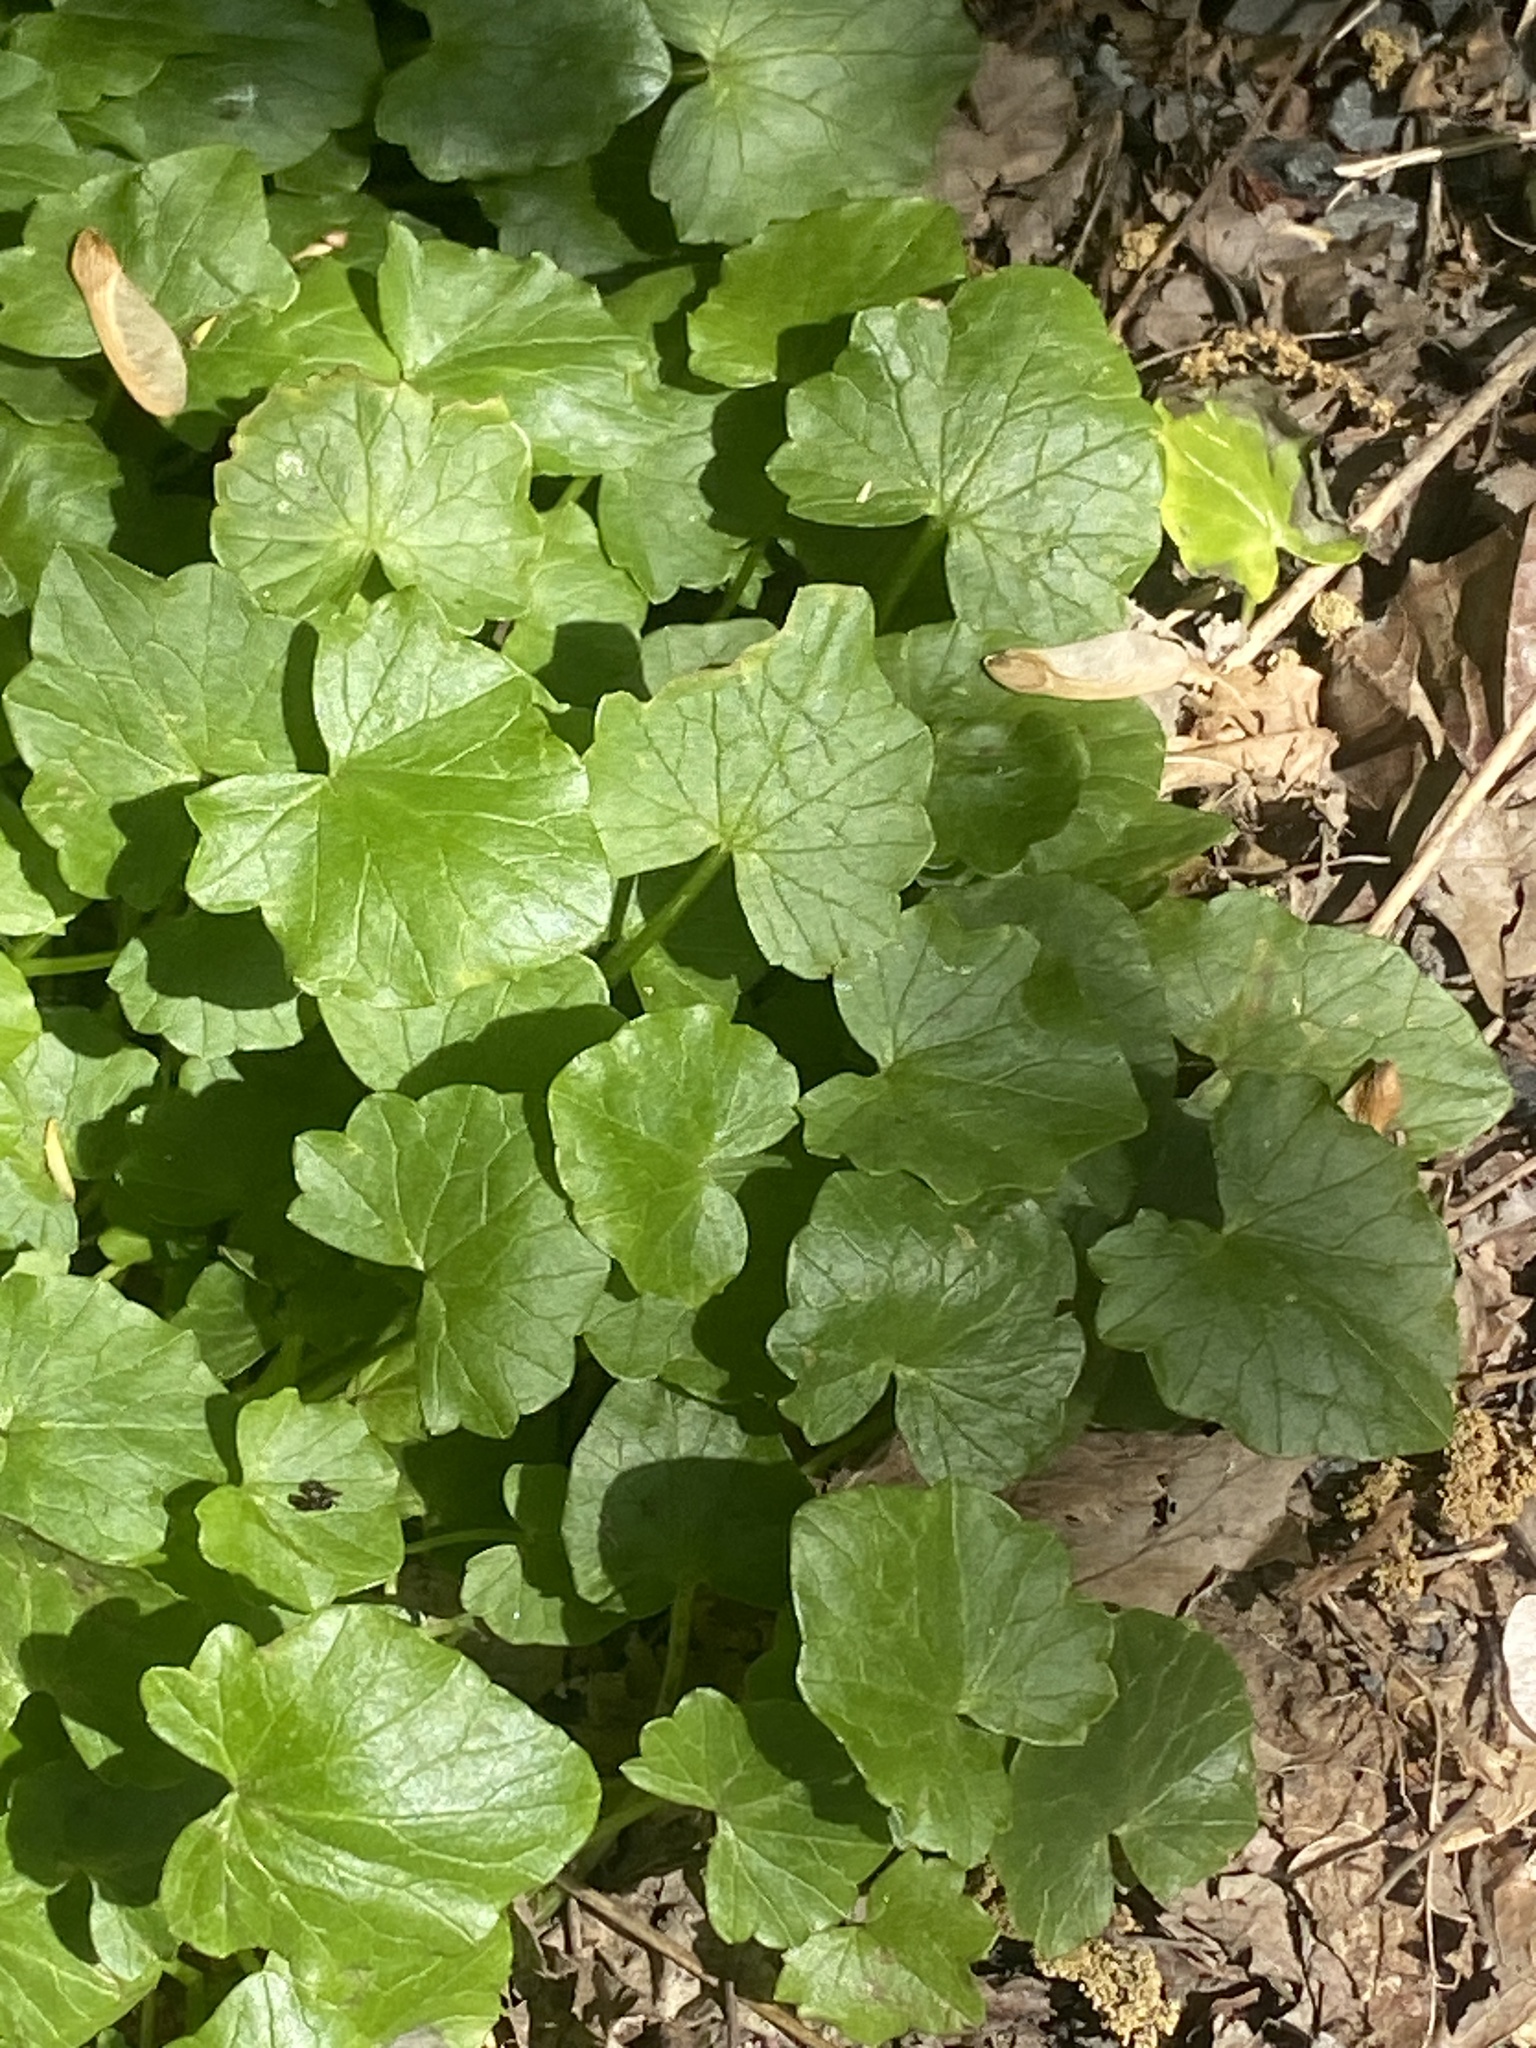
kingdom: Plantae
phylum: Tracheophyta
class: Magnoliopsida
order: Ranunculales
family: Ranunculaceae
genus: Ficaria
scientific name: Ficaria verna
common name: Lesser celandine
